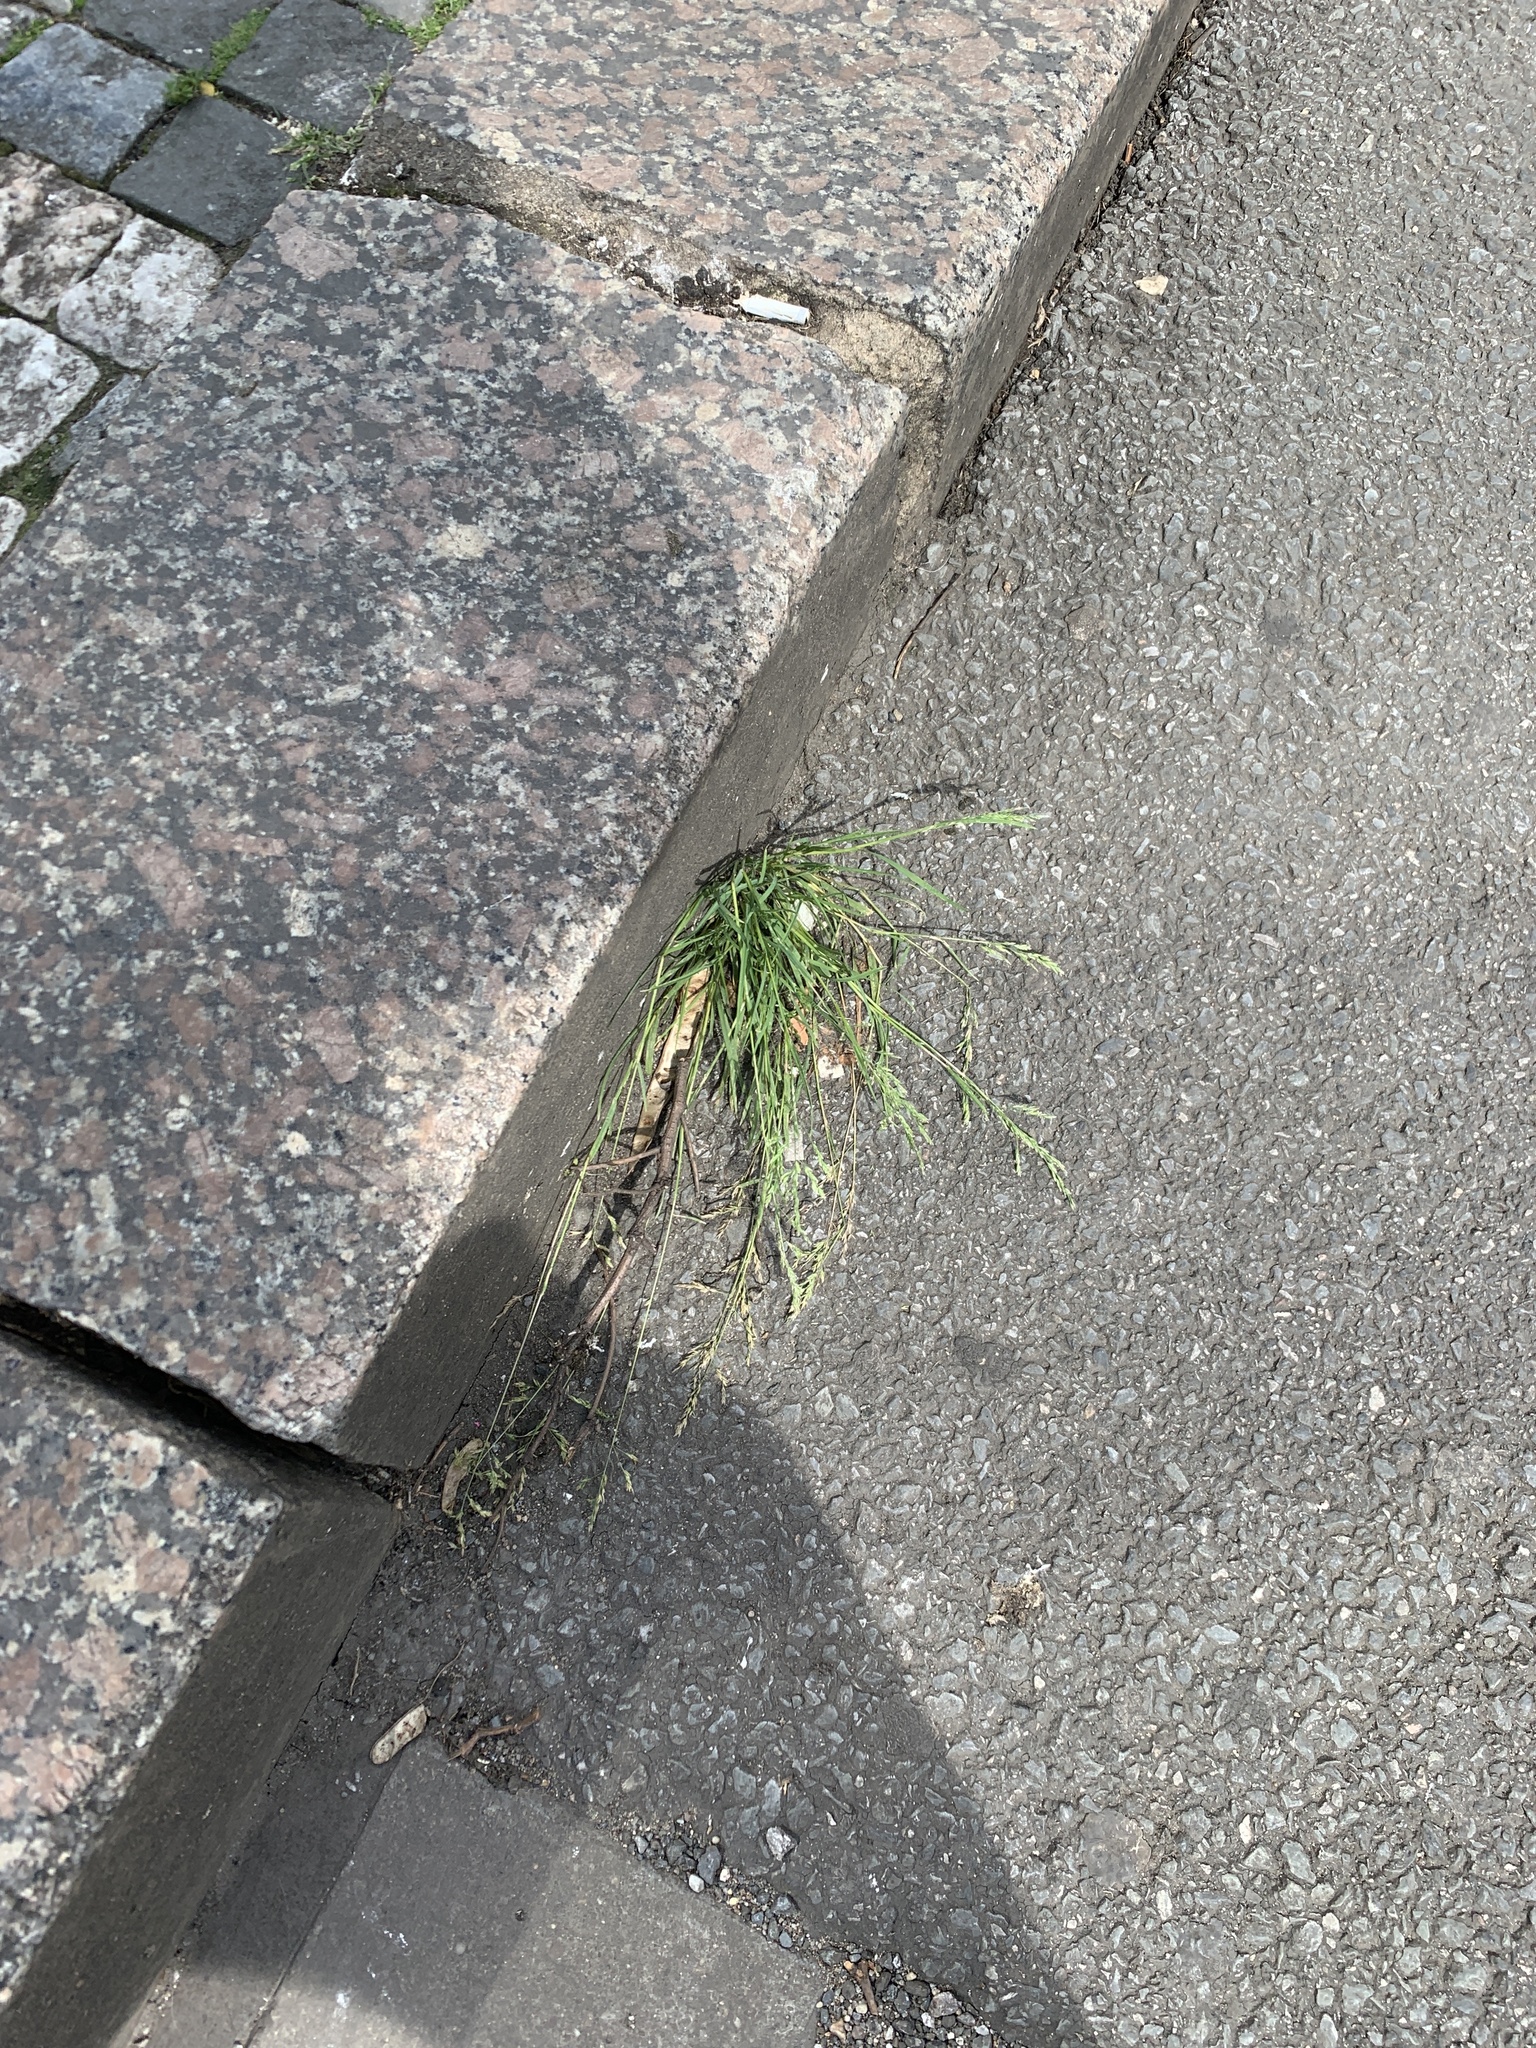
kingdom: Plantae
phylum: Tracheophyta
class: Liliopsida
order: Poales
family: Poaceae
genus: Poa
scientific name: Poa annua
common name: Annual bluegrass
